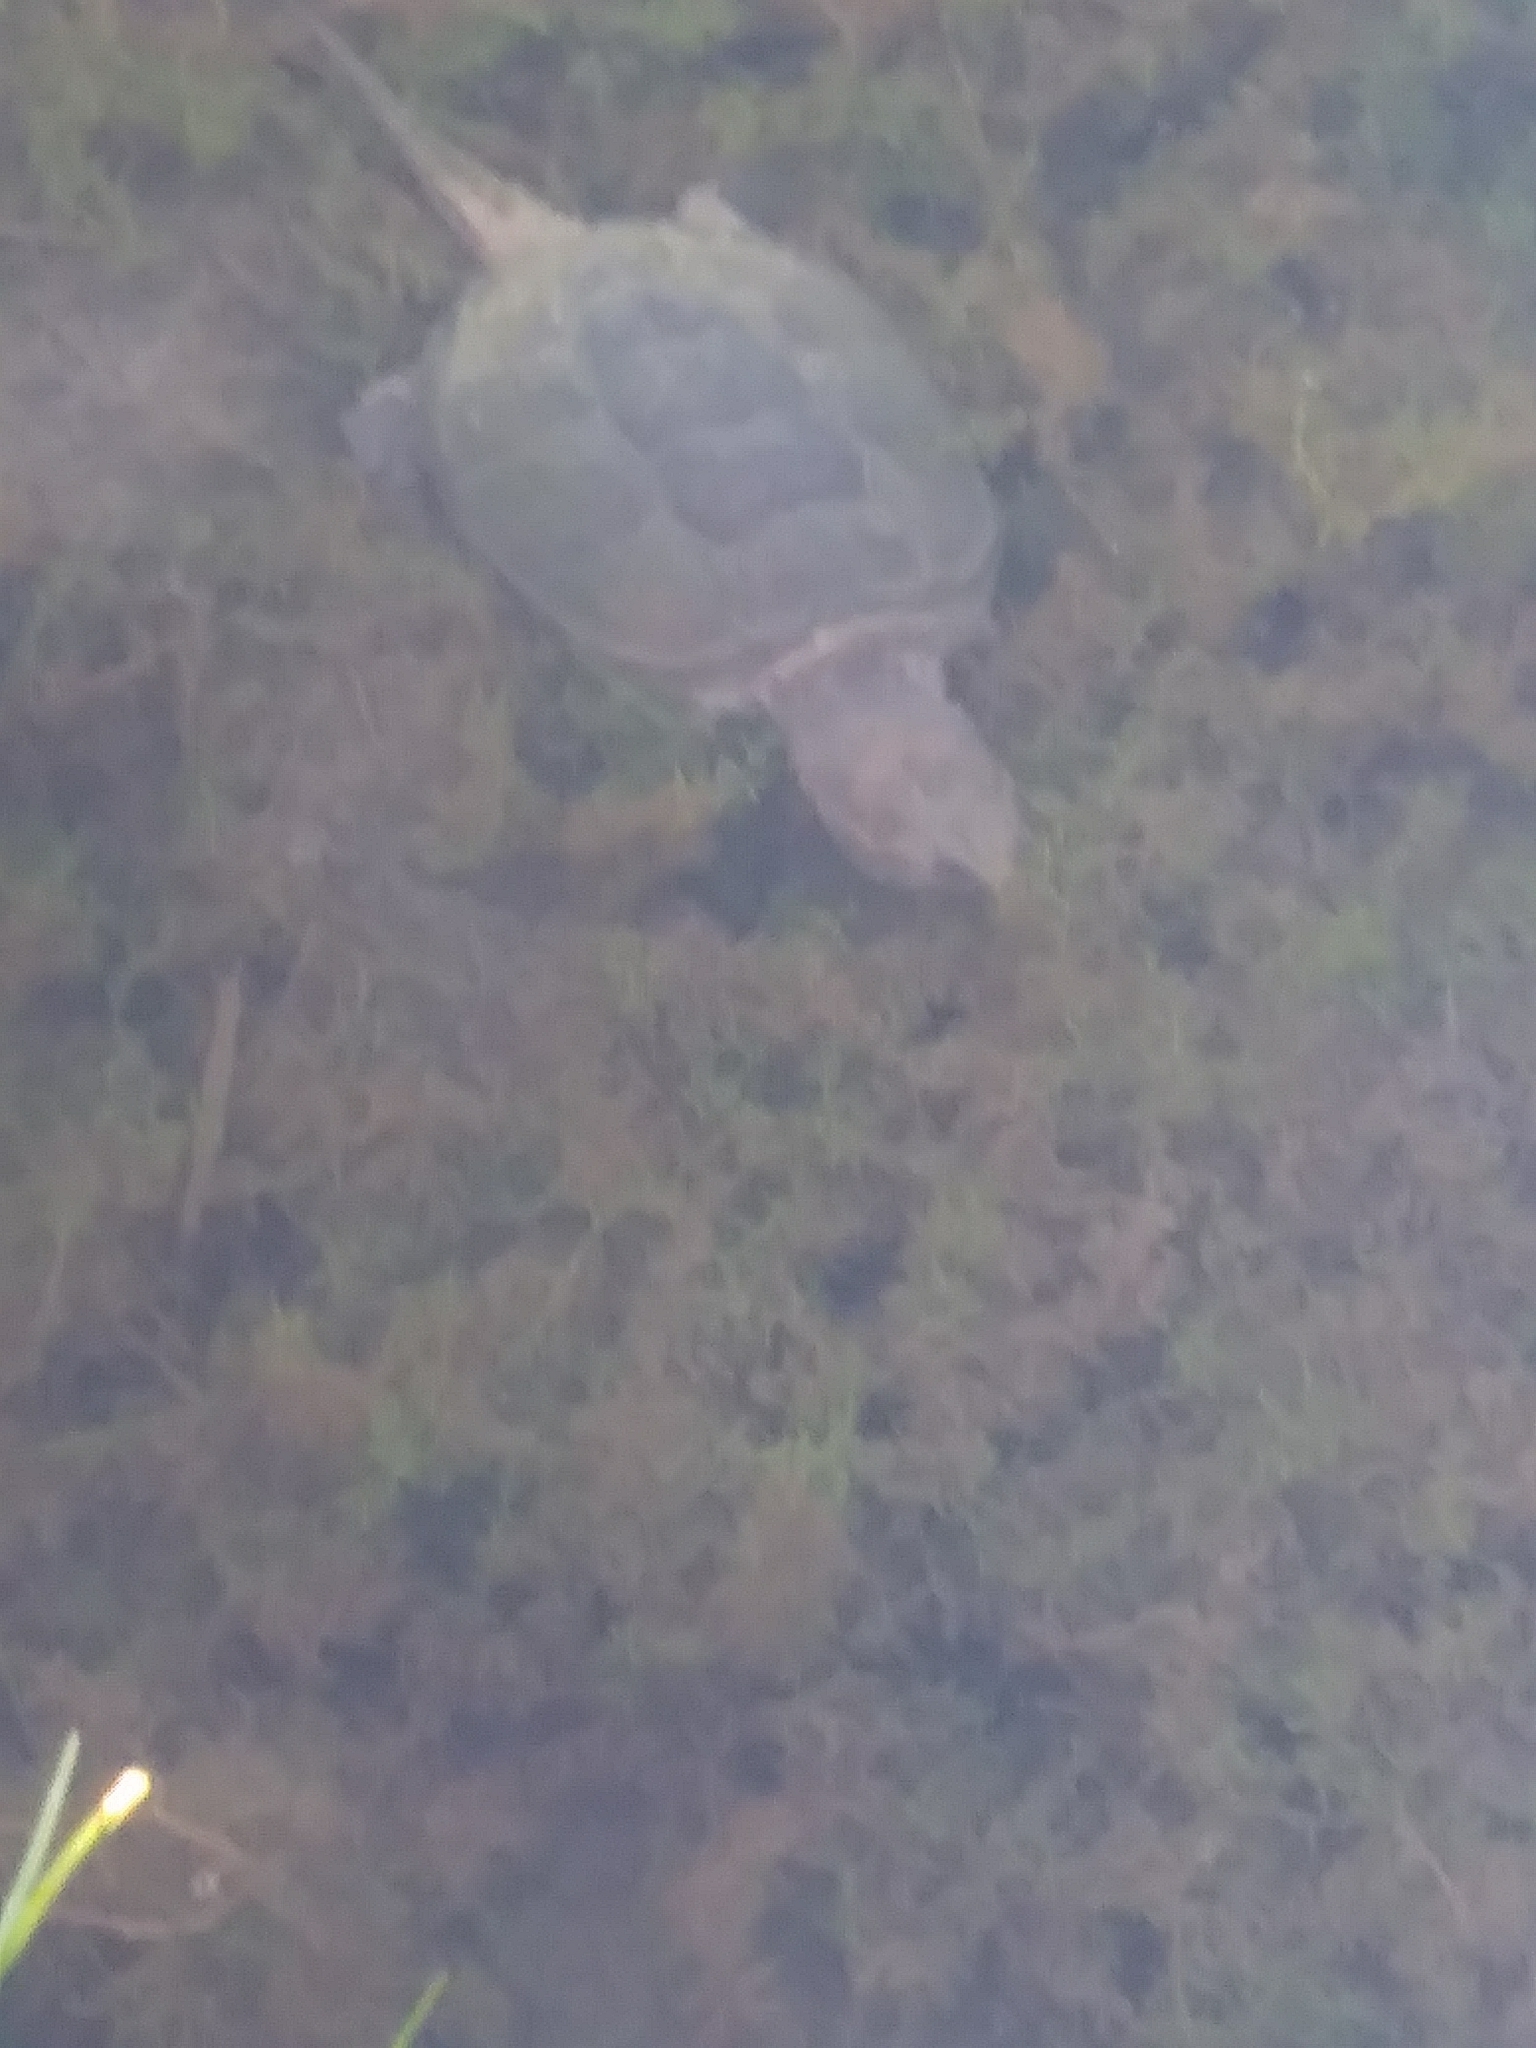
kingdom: Animalia
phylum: Chordata
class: Testudines
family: Chelydridae
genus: Chelydra
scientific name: Chelydra serpentina
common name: Common snapping turtle
